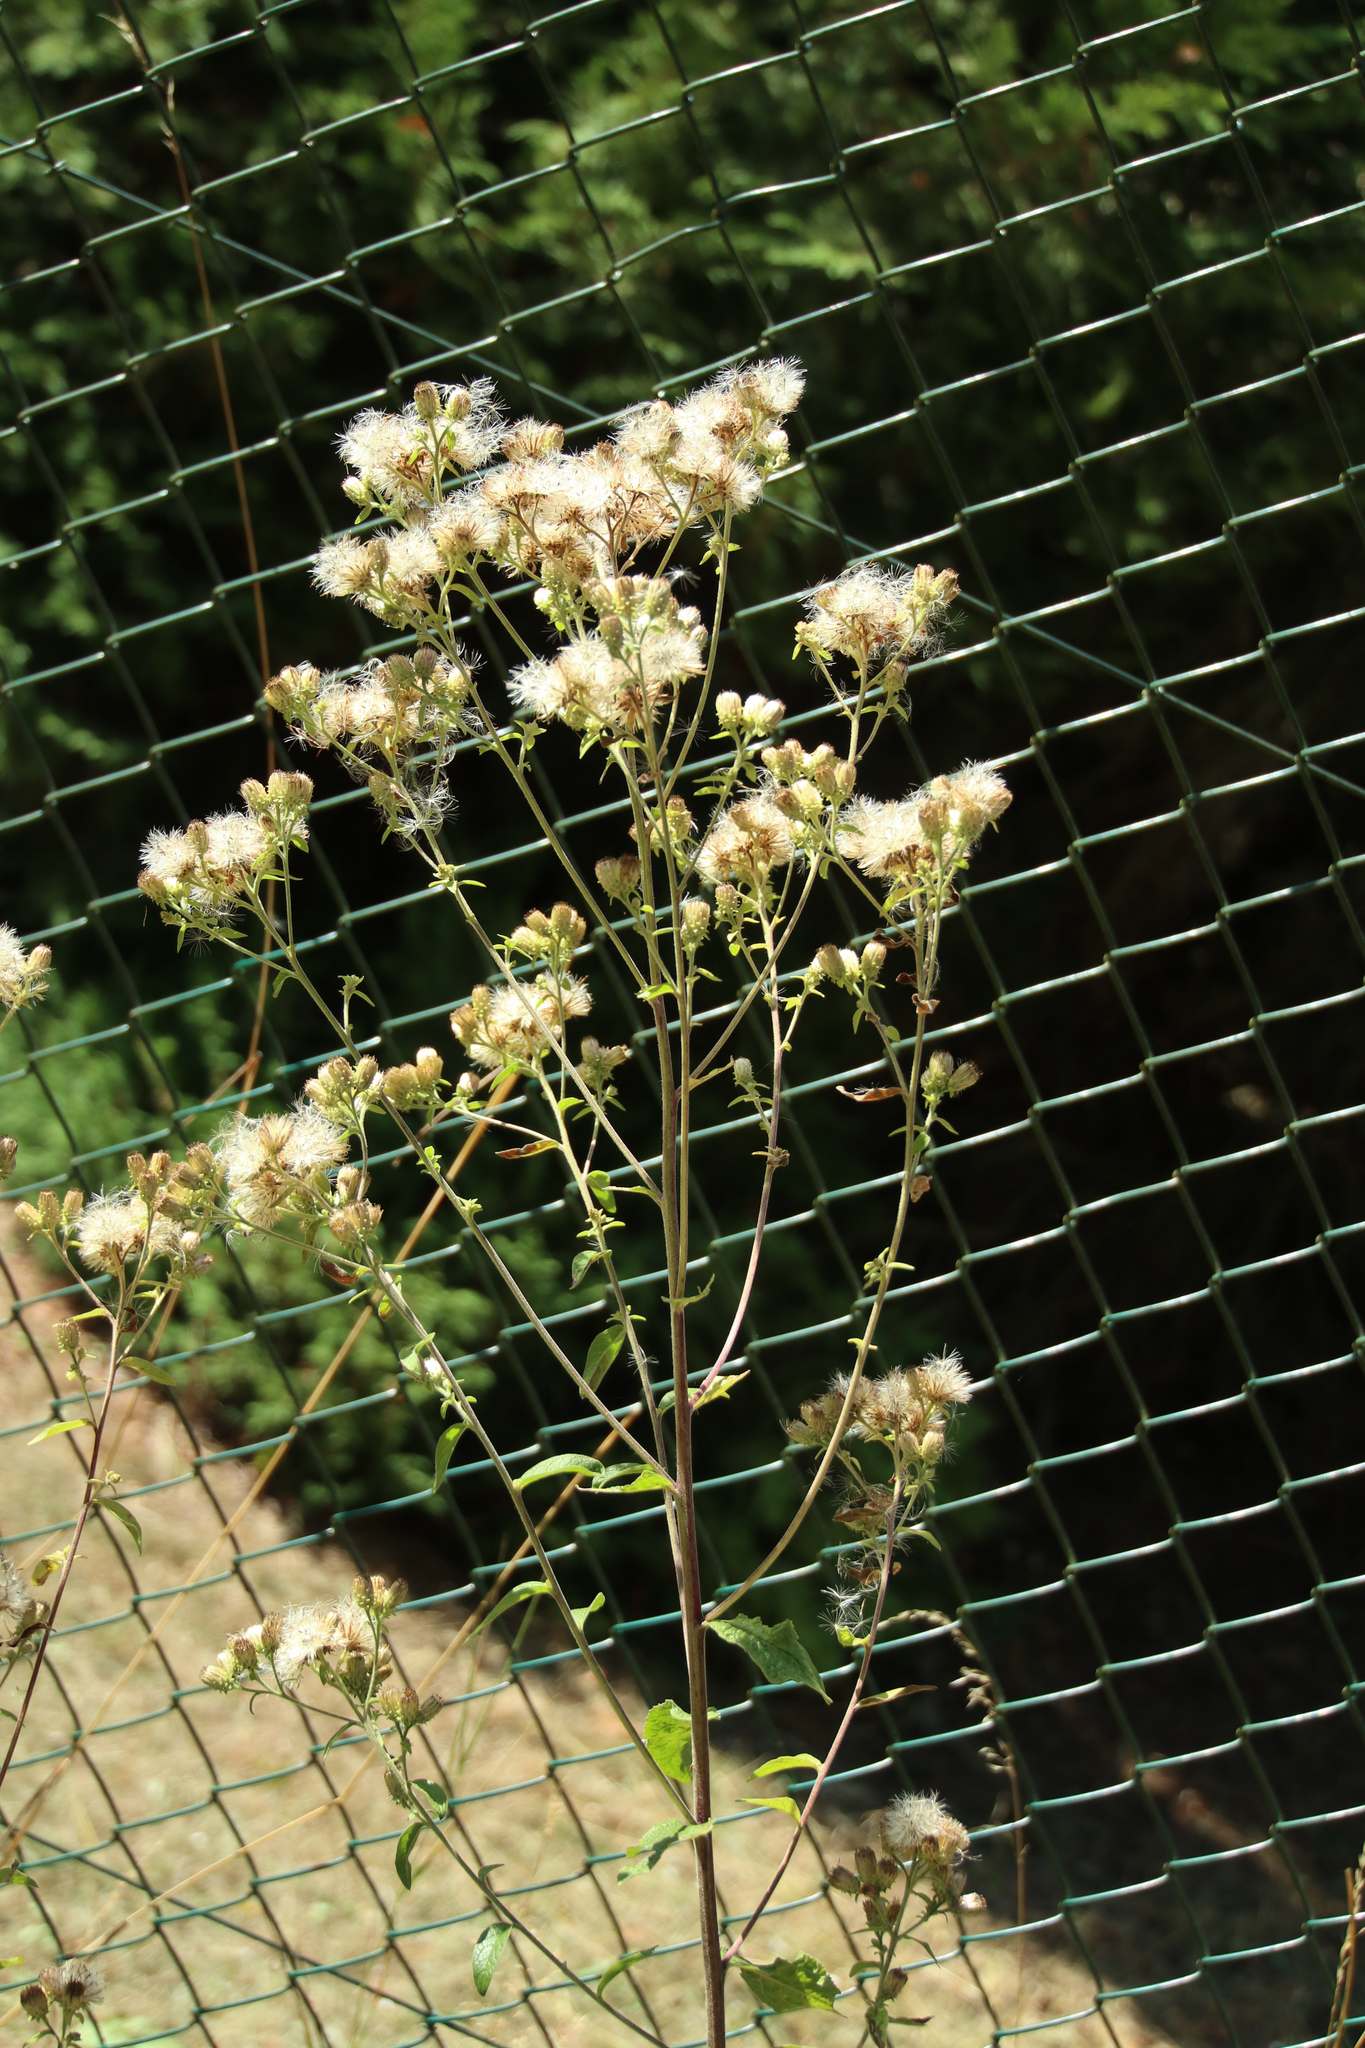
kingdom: Plantae
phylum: Tracheophyta
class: Magnoliopsida
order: Asterales
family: Asteraceae
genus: Pentanema
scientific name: Pentanema squarrosum
